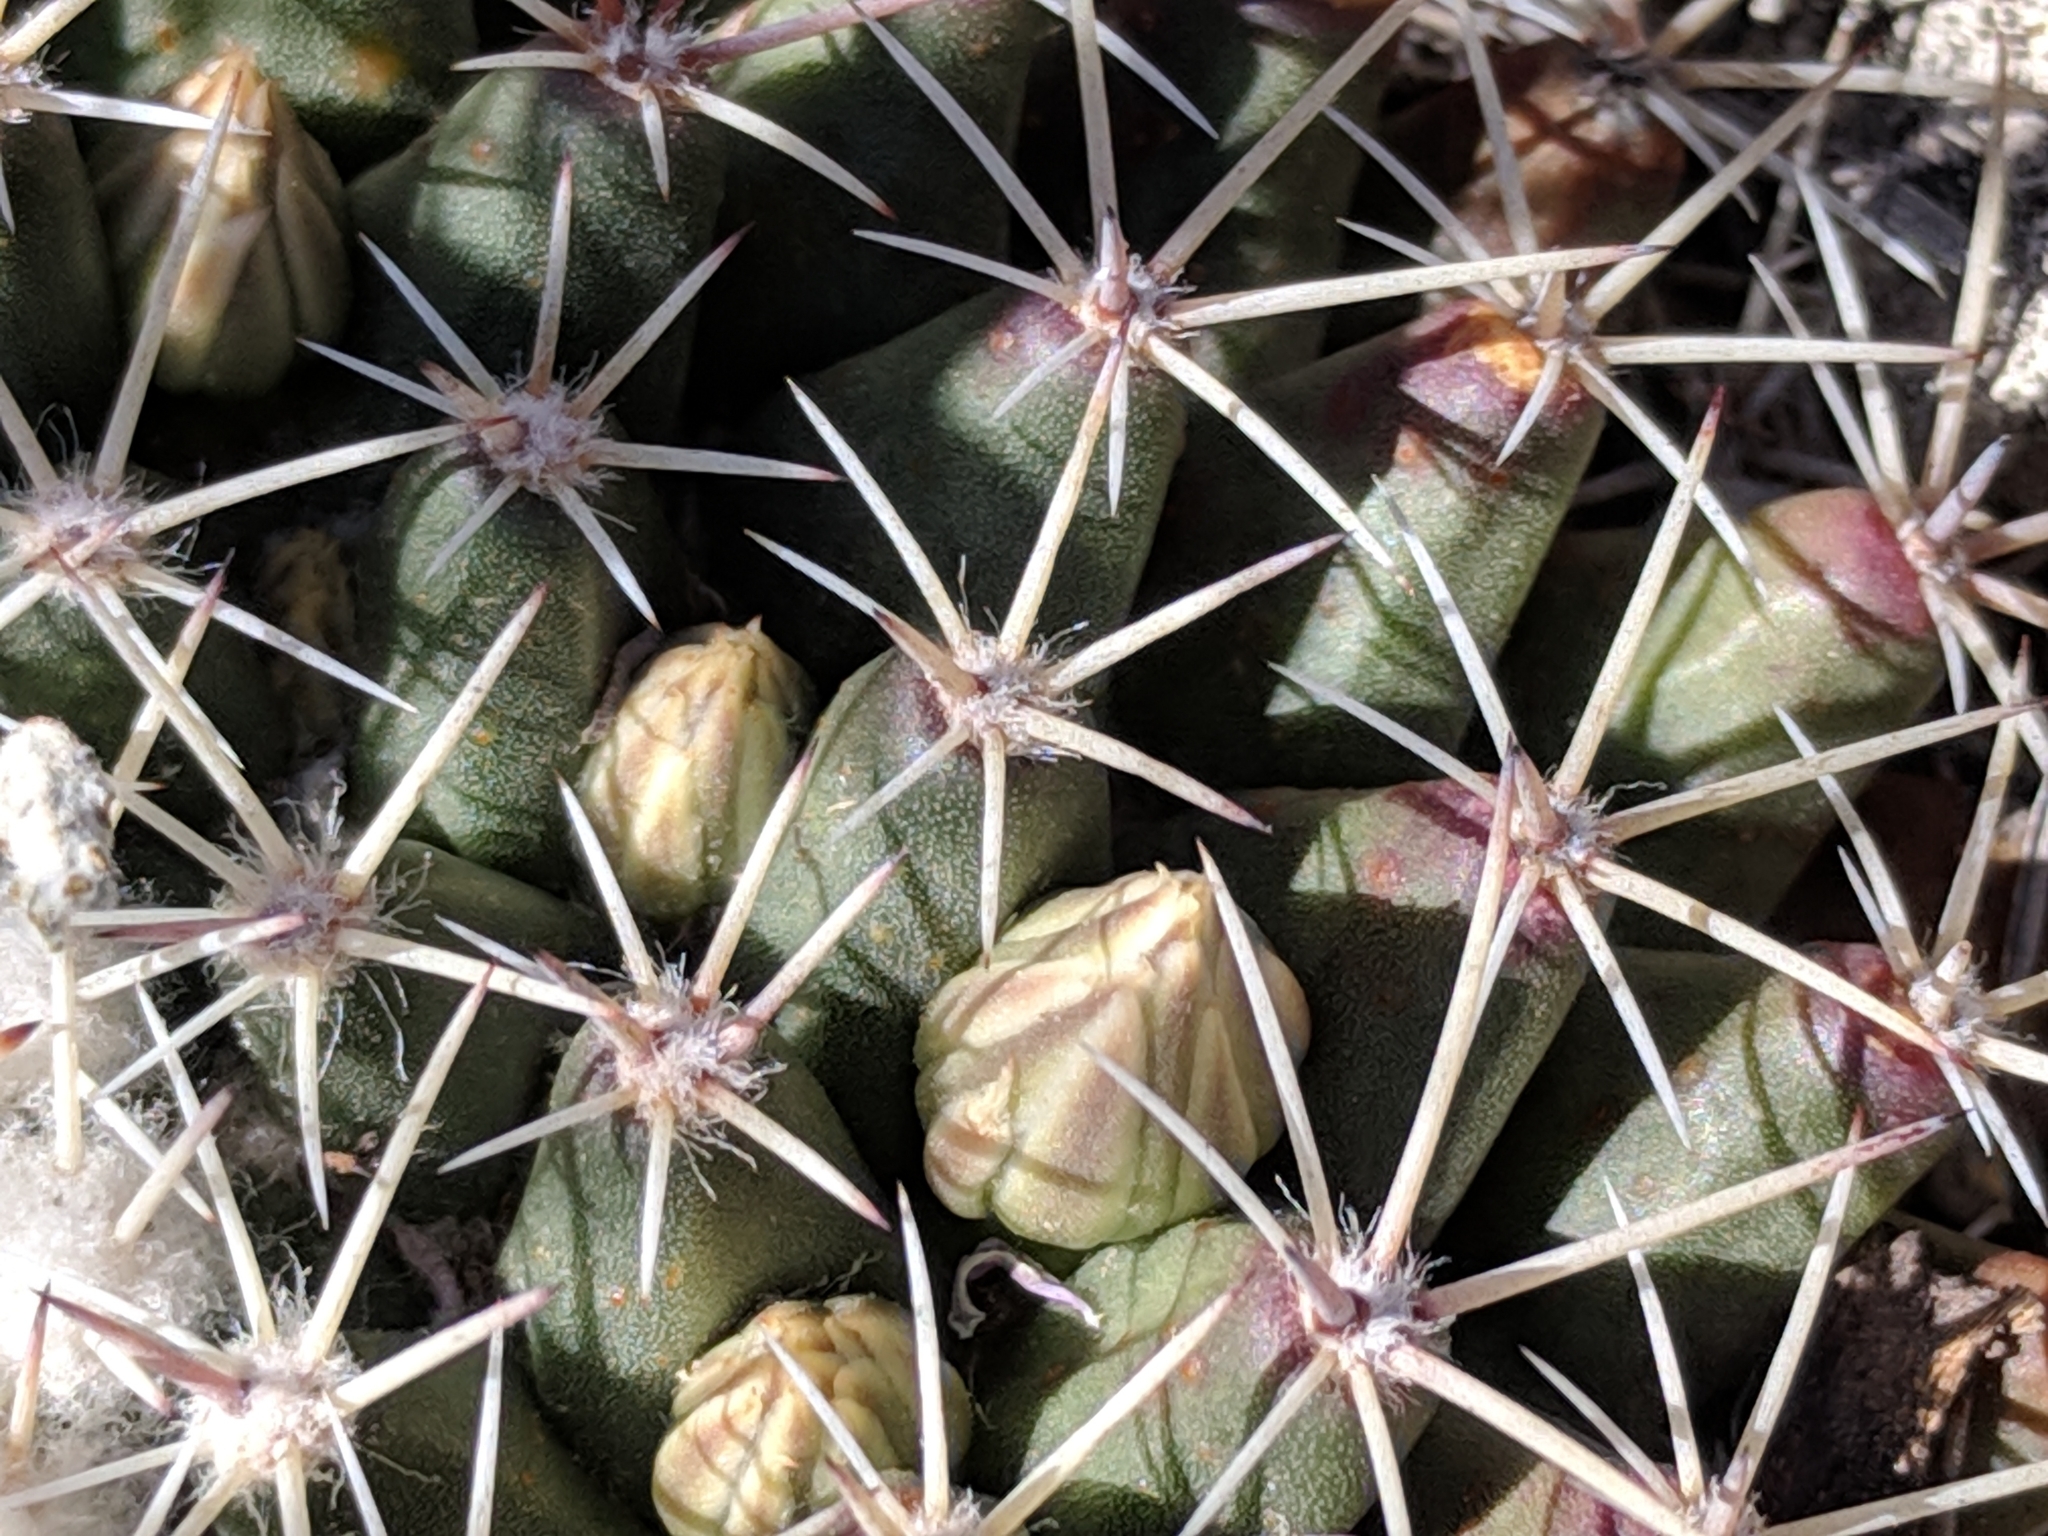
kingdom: Plantae
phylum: Tracheophyta
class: Magnoliopsida
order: Caryophyllales
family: Cactaceae
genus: Mammillaria
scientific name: Mammillaria heyderi
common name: Little nipple cactus
